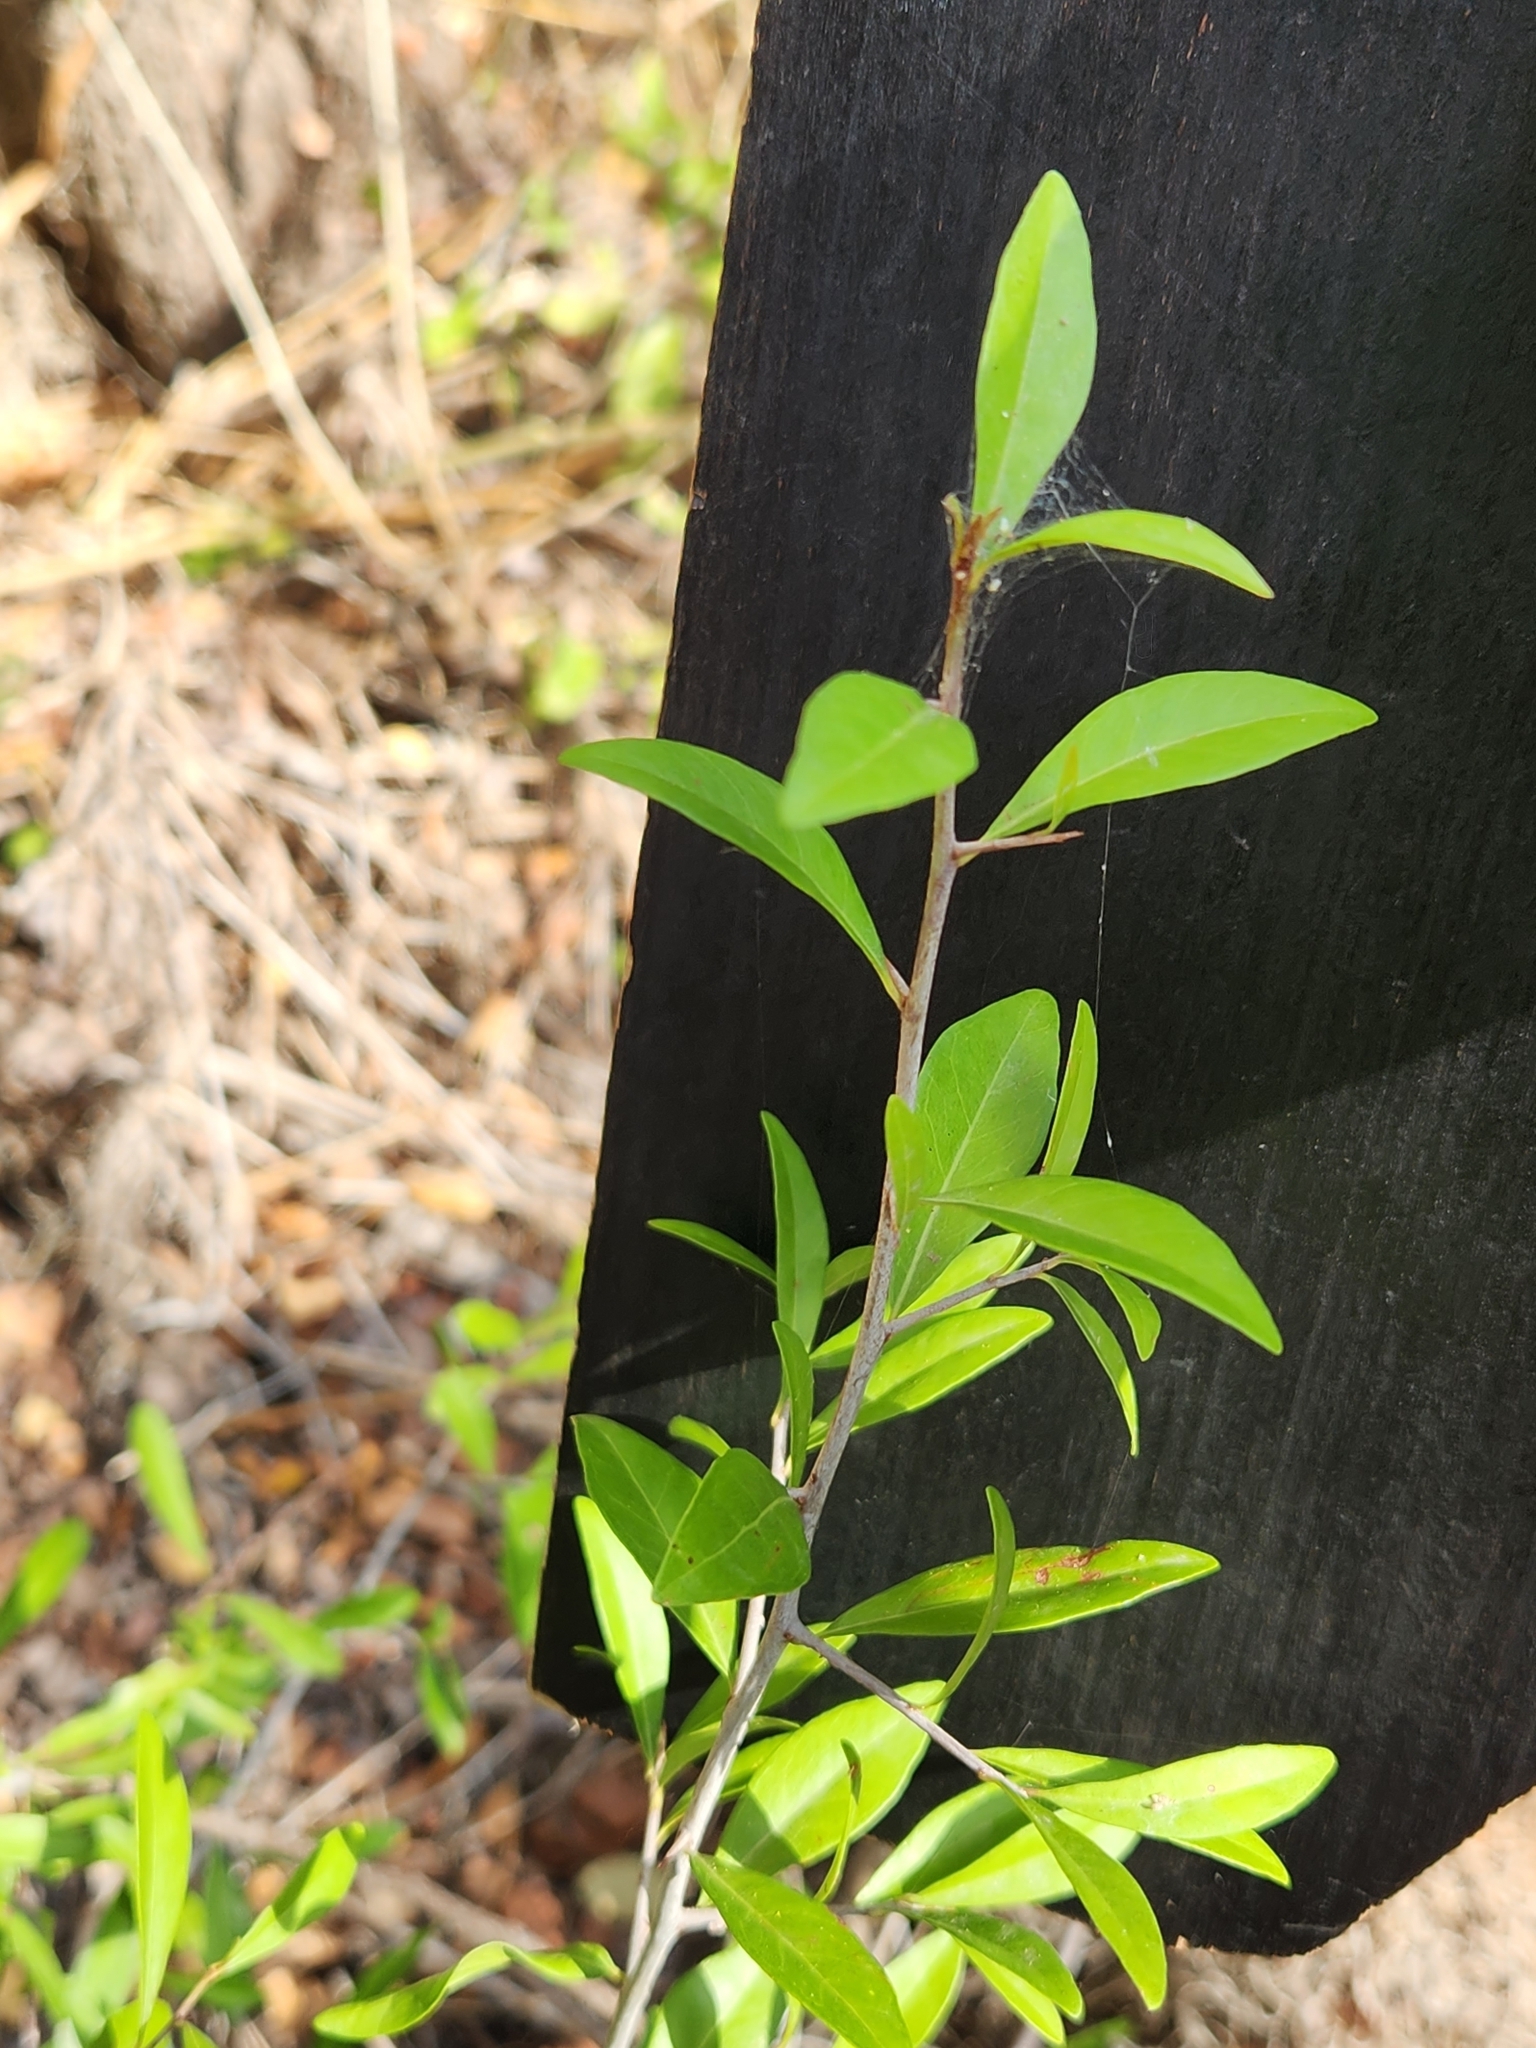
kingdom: Plantae
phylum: Tracheophyta
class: Magnoliopsida
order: Ericales
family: Sapotaceae
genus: Sideroxylon
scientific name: Sideroxylon celastrinum
